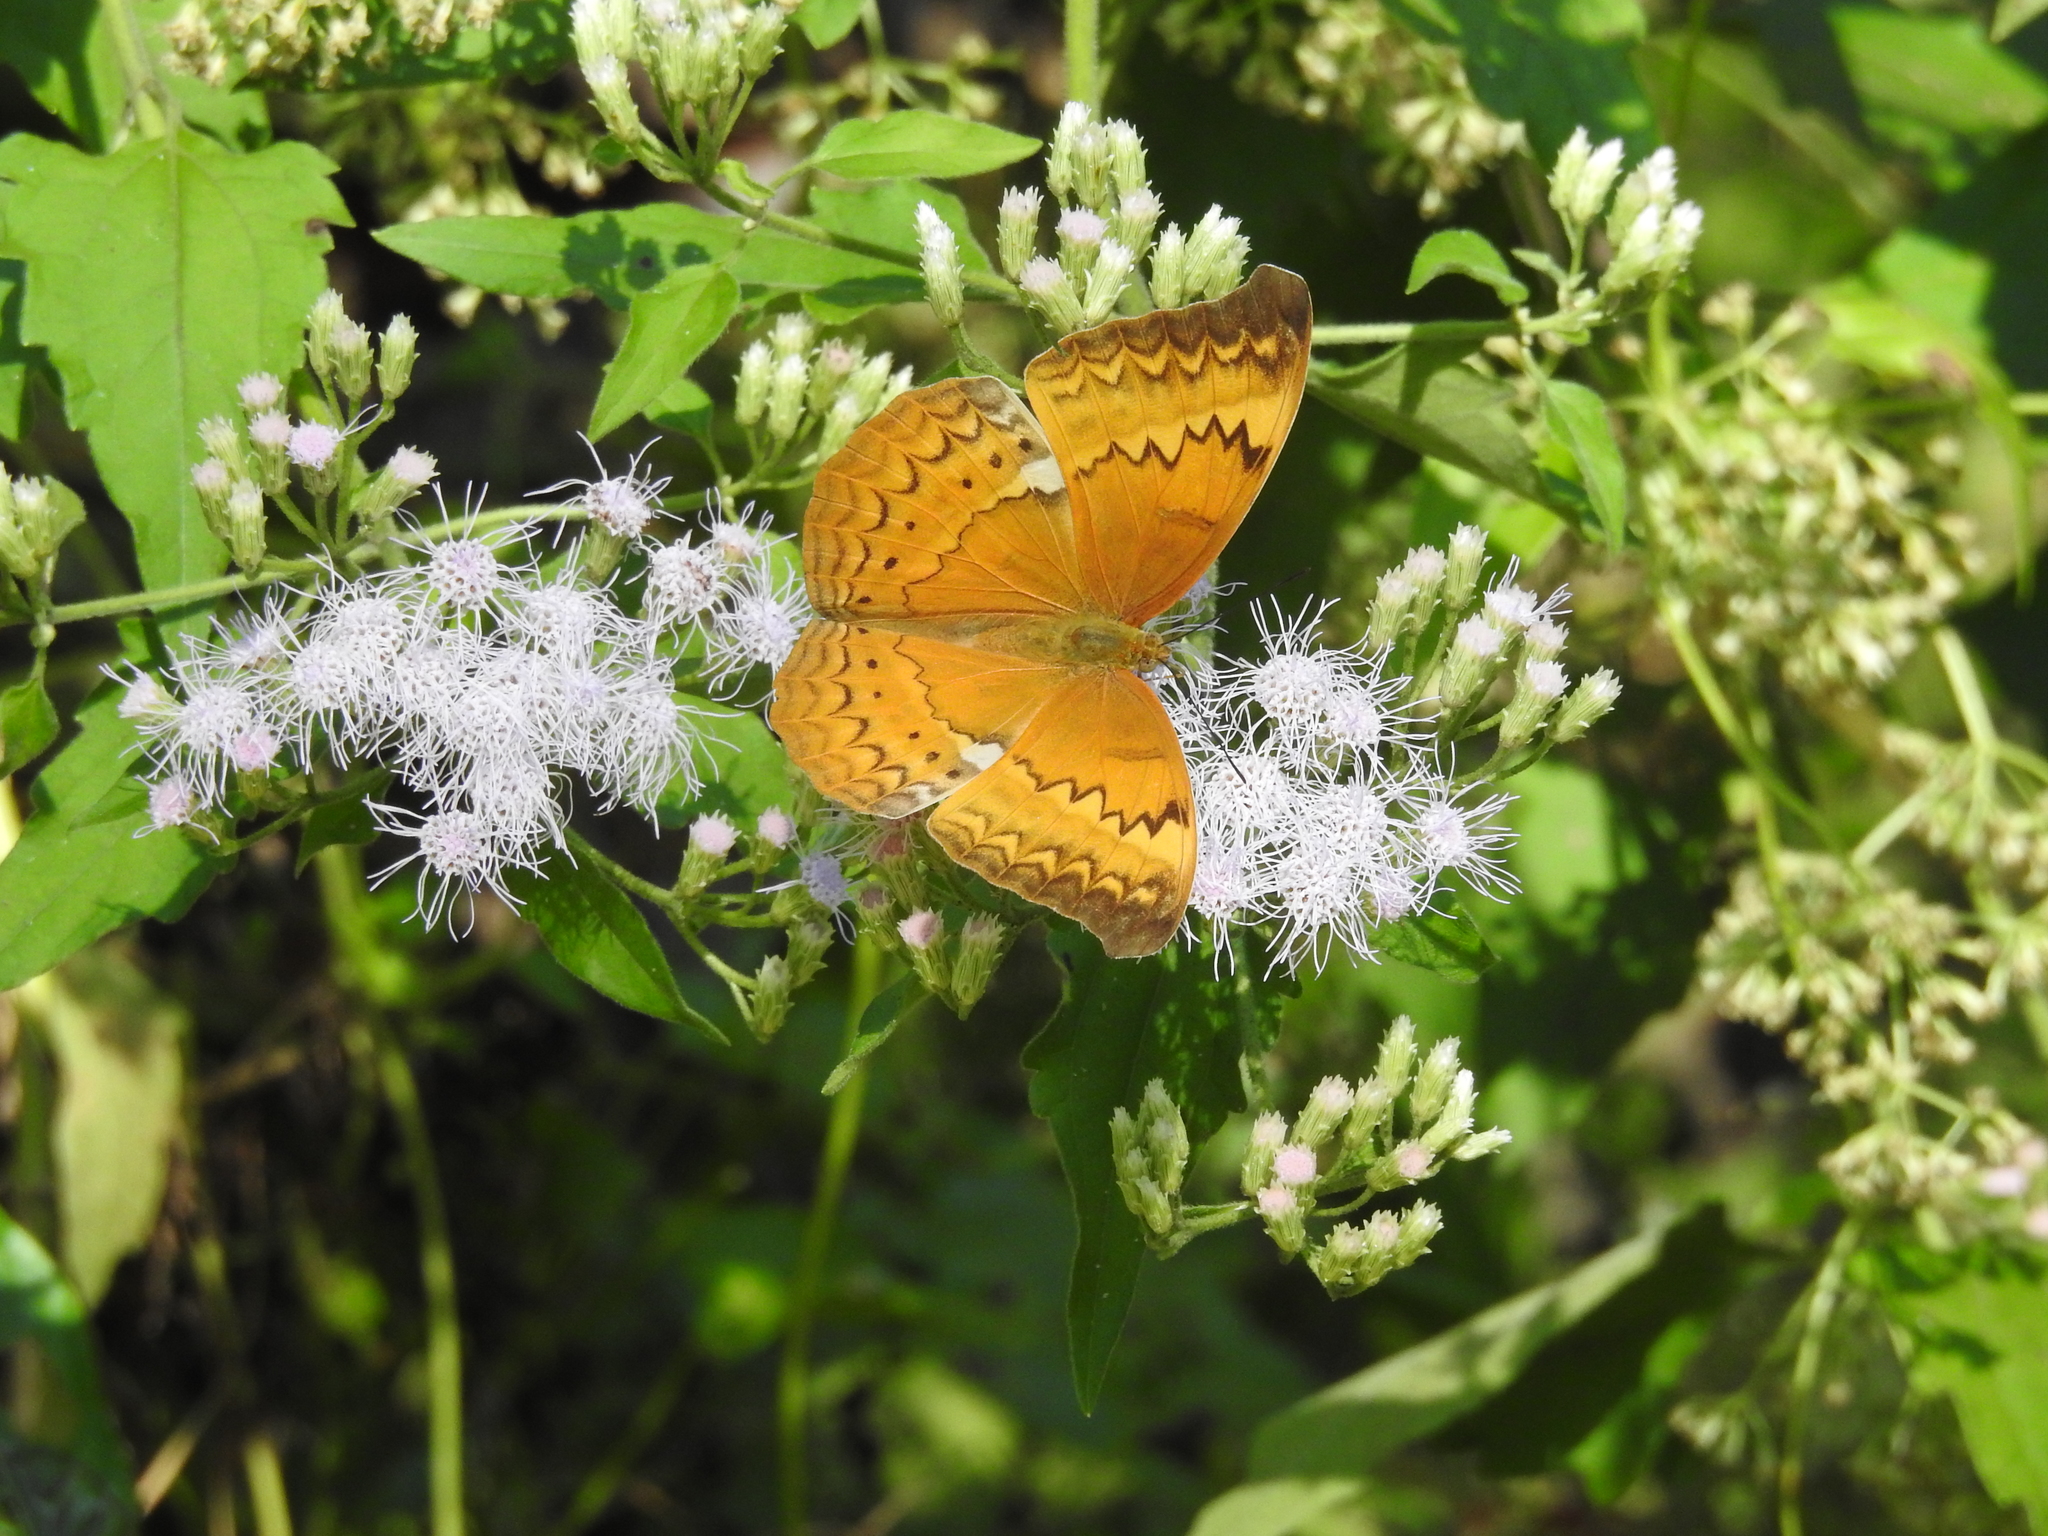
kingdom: Animalia
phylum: Arthropoda
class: Insecta
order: Lepidoptera
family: Nymphalidae
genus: Cirrochroa
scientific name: Cirrochroa aoris
